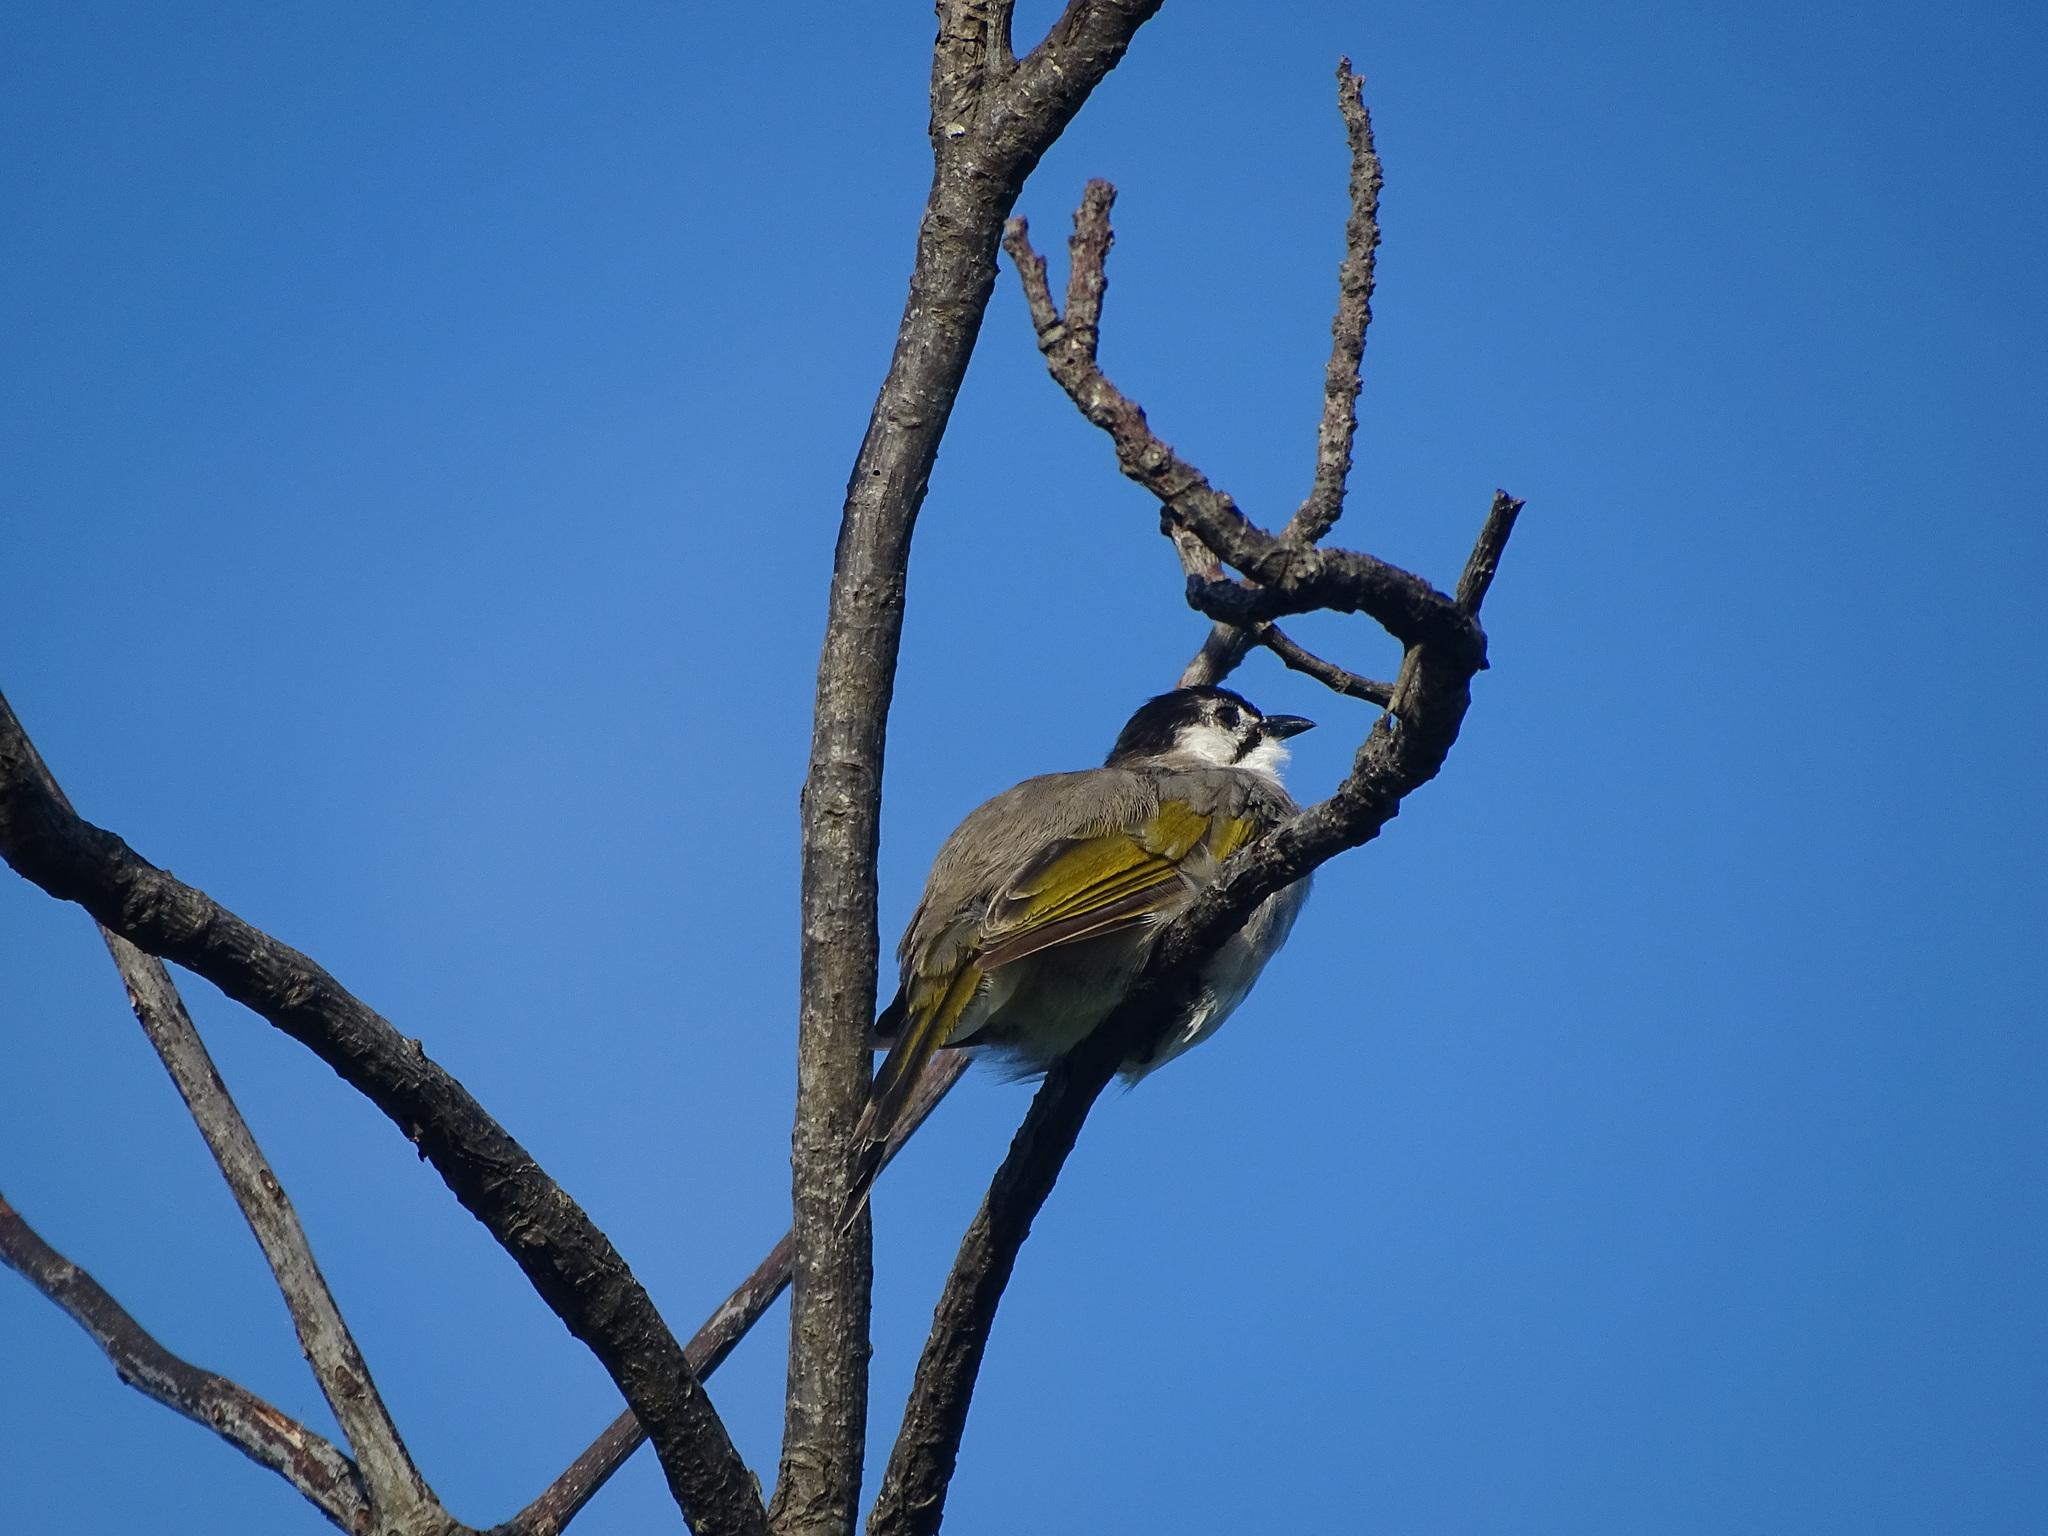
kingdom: Animalia
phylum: Chordata
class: Aves
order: Passeriformes
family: Pycnonotidae
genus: Pycnonotus
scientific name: Pycnonotus taivanus
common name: Styan's bulbul
